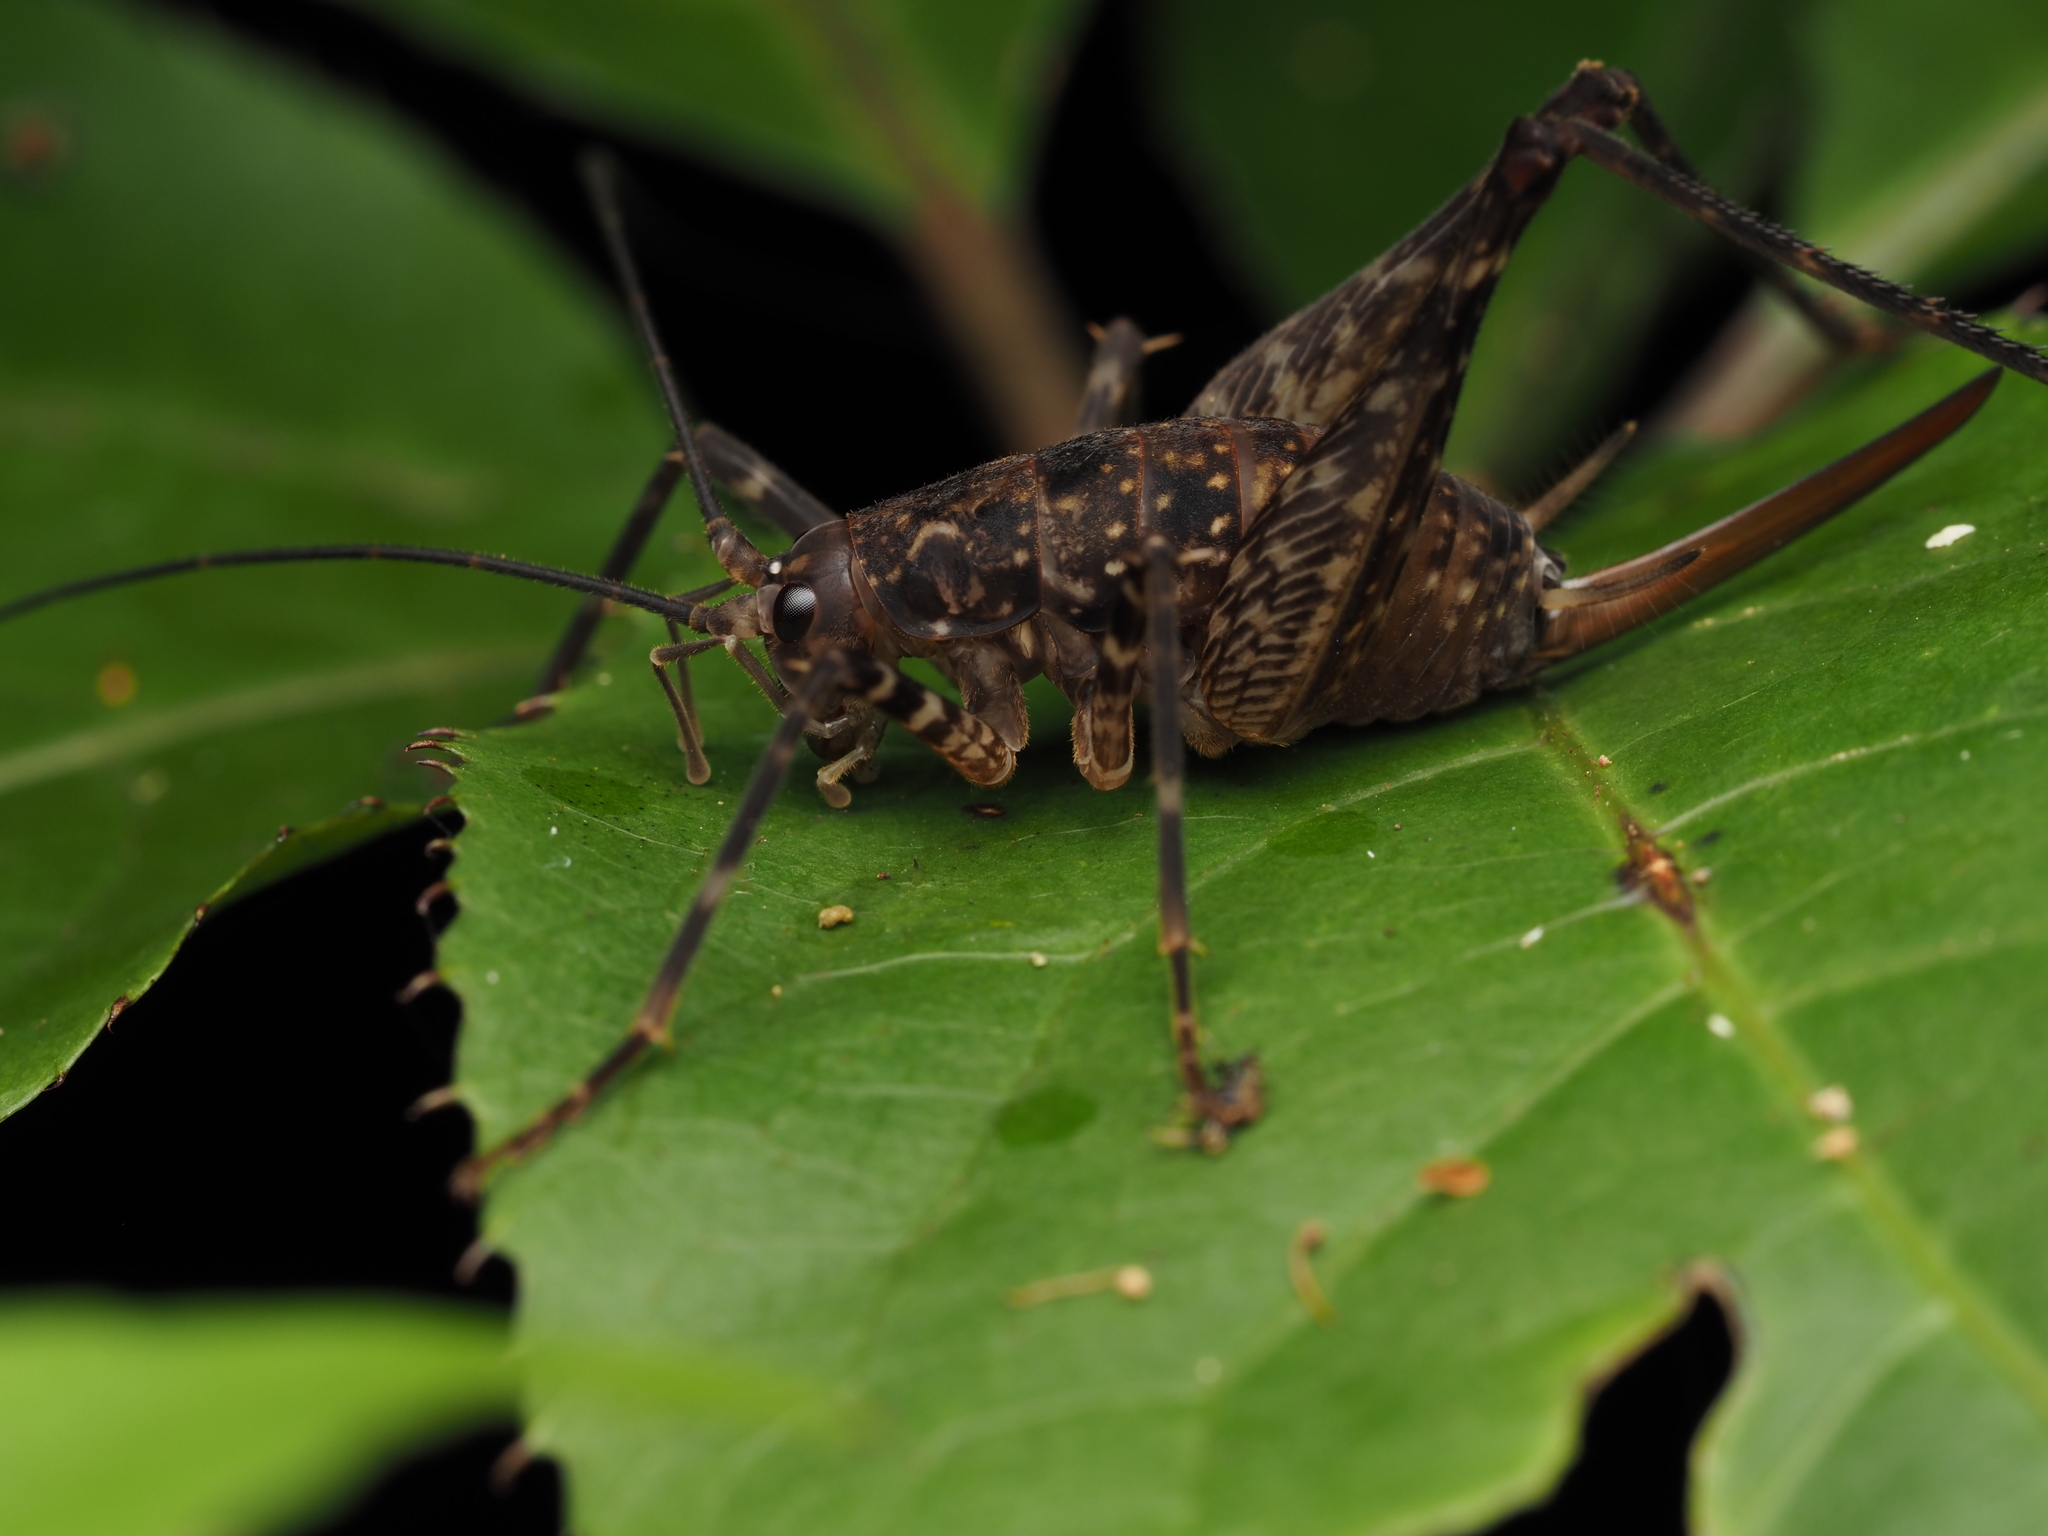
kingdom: Animalia
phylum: Arthropoda
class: Insecta
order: Orthoptera
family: Rhaphidophoridae
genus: Miotopus
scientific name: Miotopus diversus
